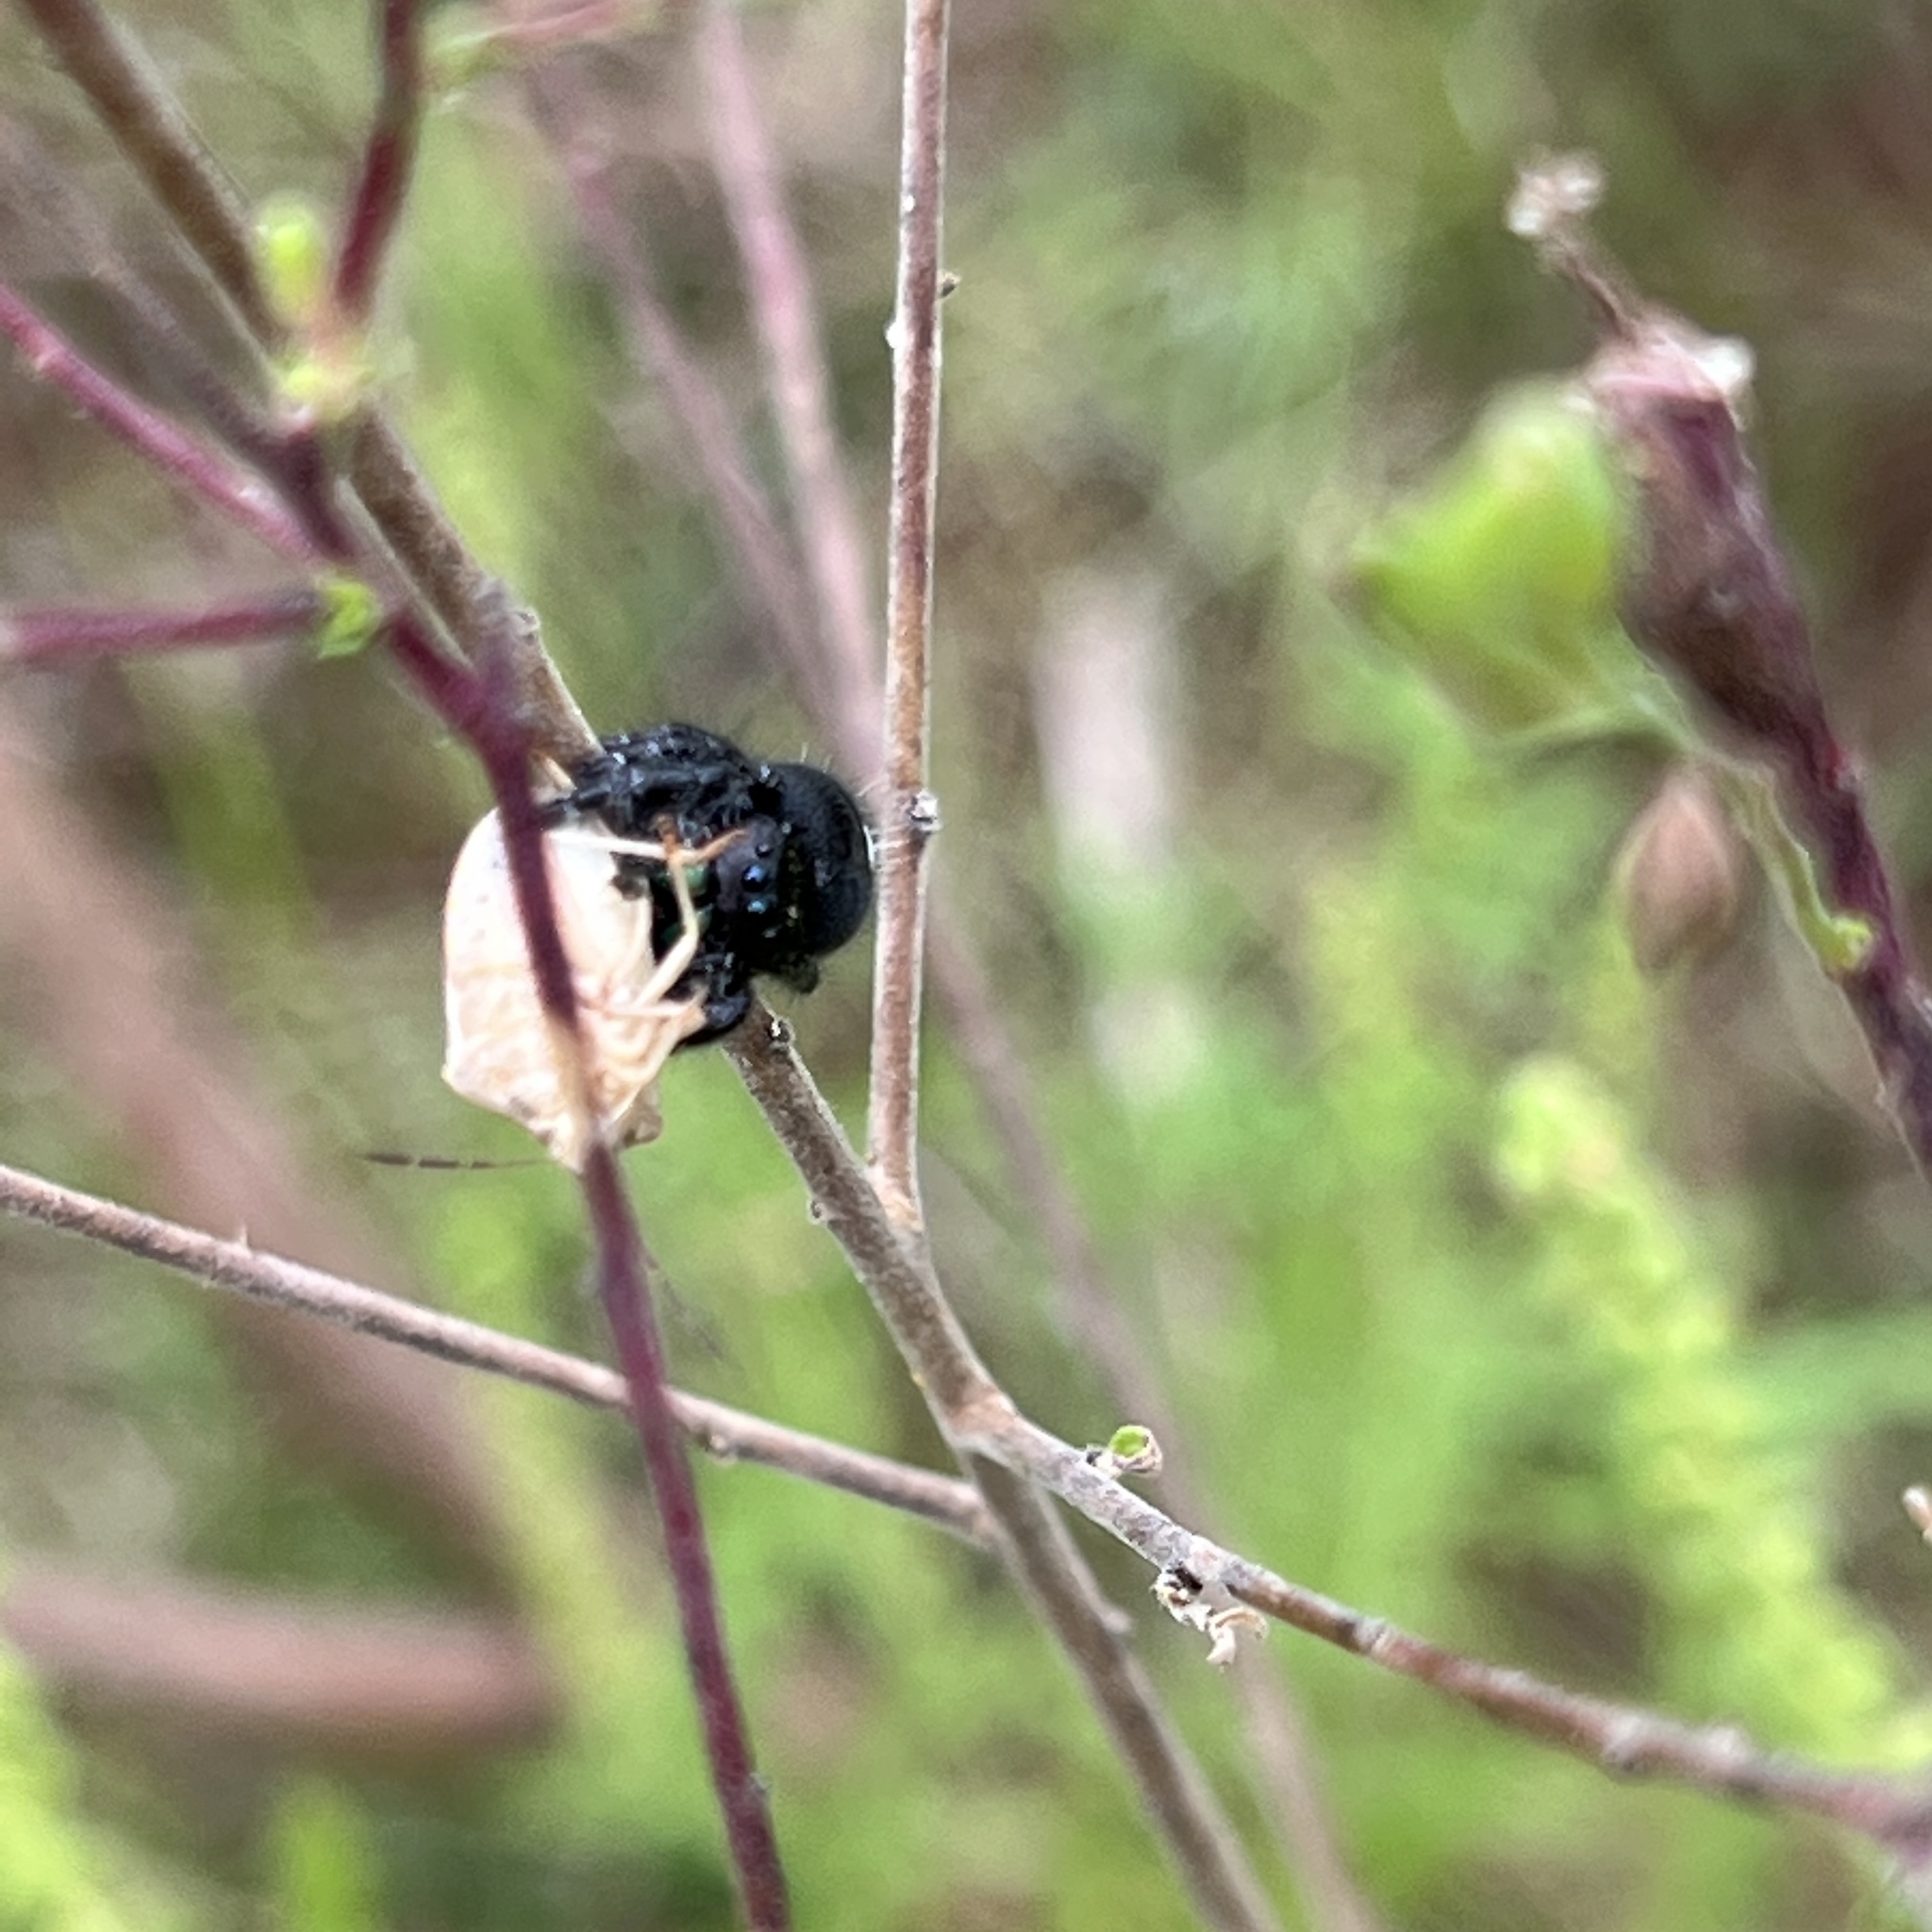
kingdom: Animalia
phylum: Arthropoda
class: Arachnida
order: Araneae
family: Salticidae
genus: Phidippus
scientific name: Phidippus audax
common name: Bold jumper
